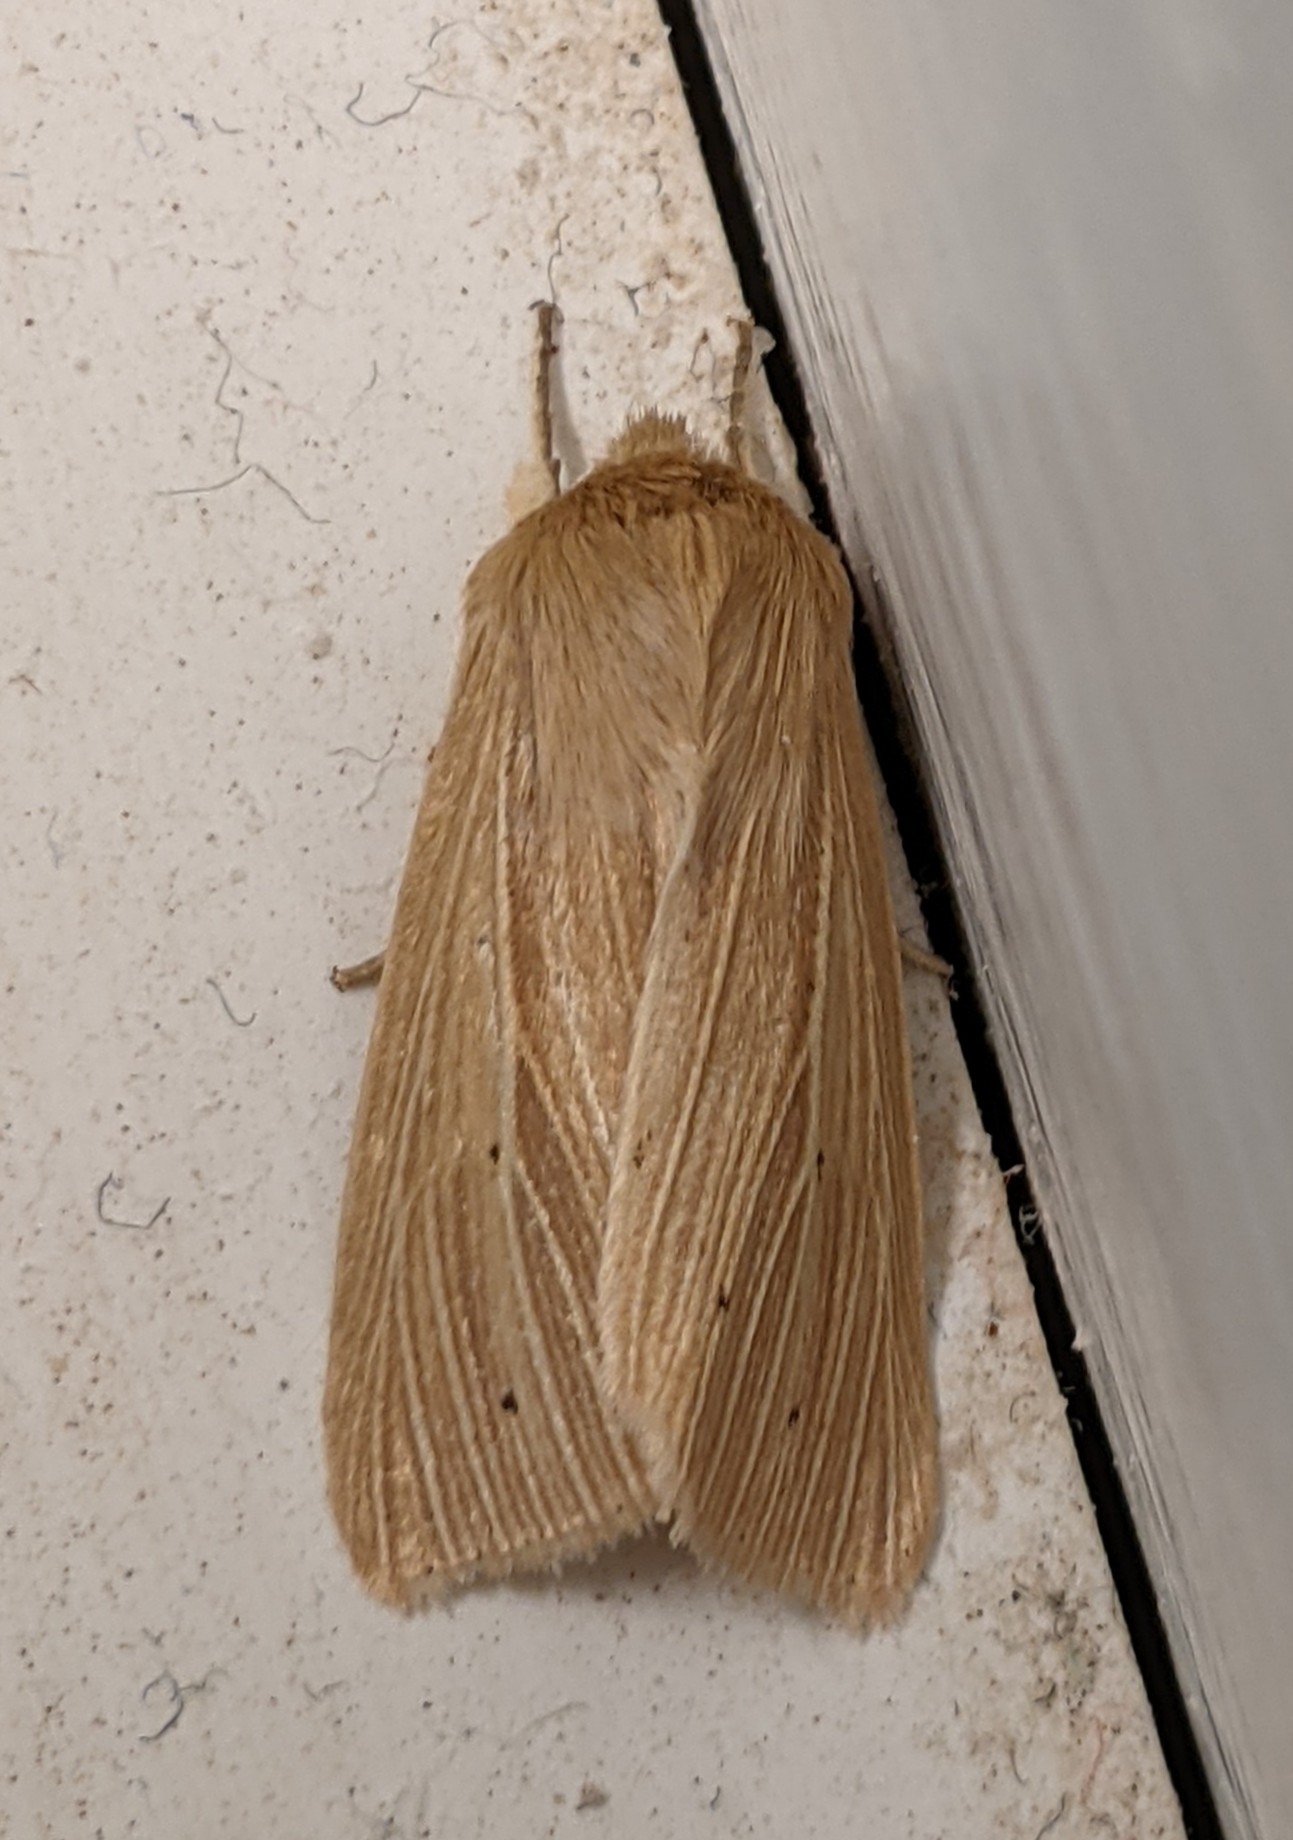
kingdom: Animalia
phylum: Arthropoda
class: Insecta
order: Lepidoptera
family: Noctuidae
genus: Mythimna
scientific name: Mythimna oxygala
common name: Lesser wainscot
